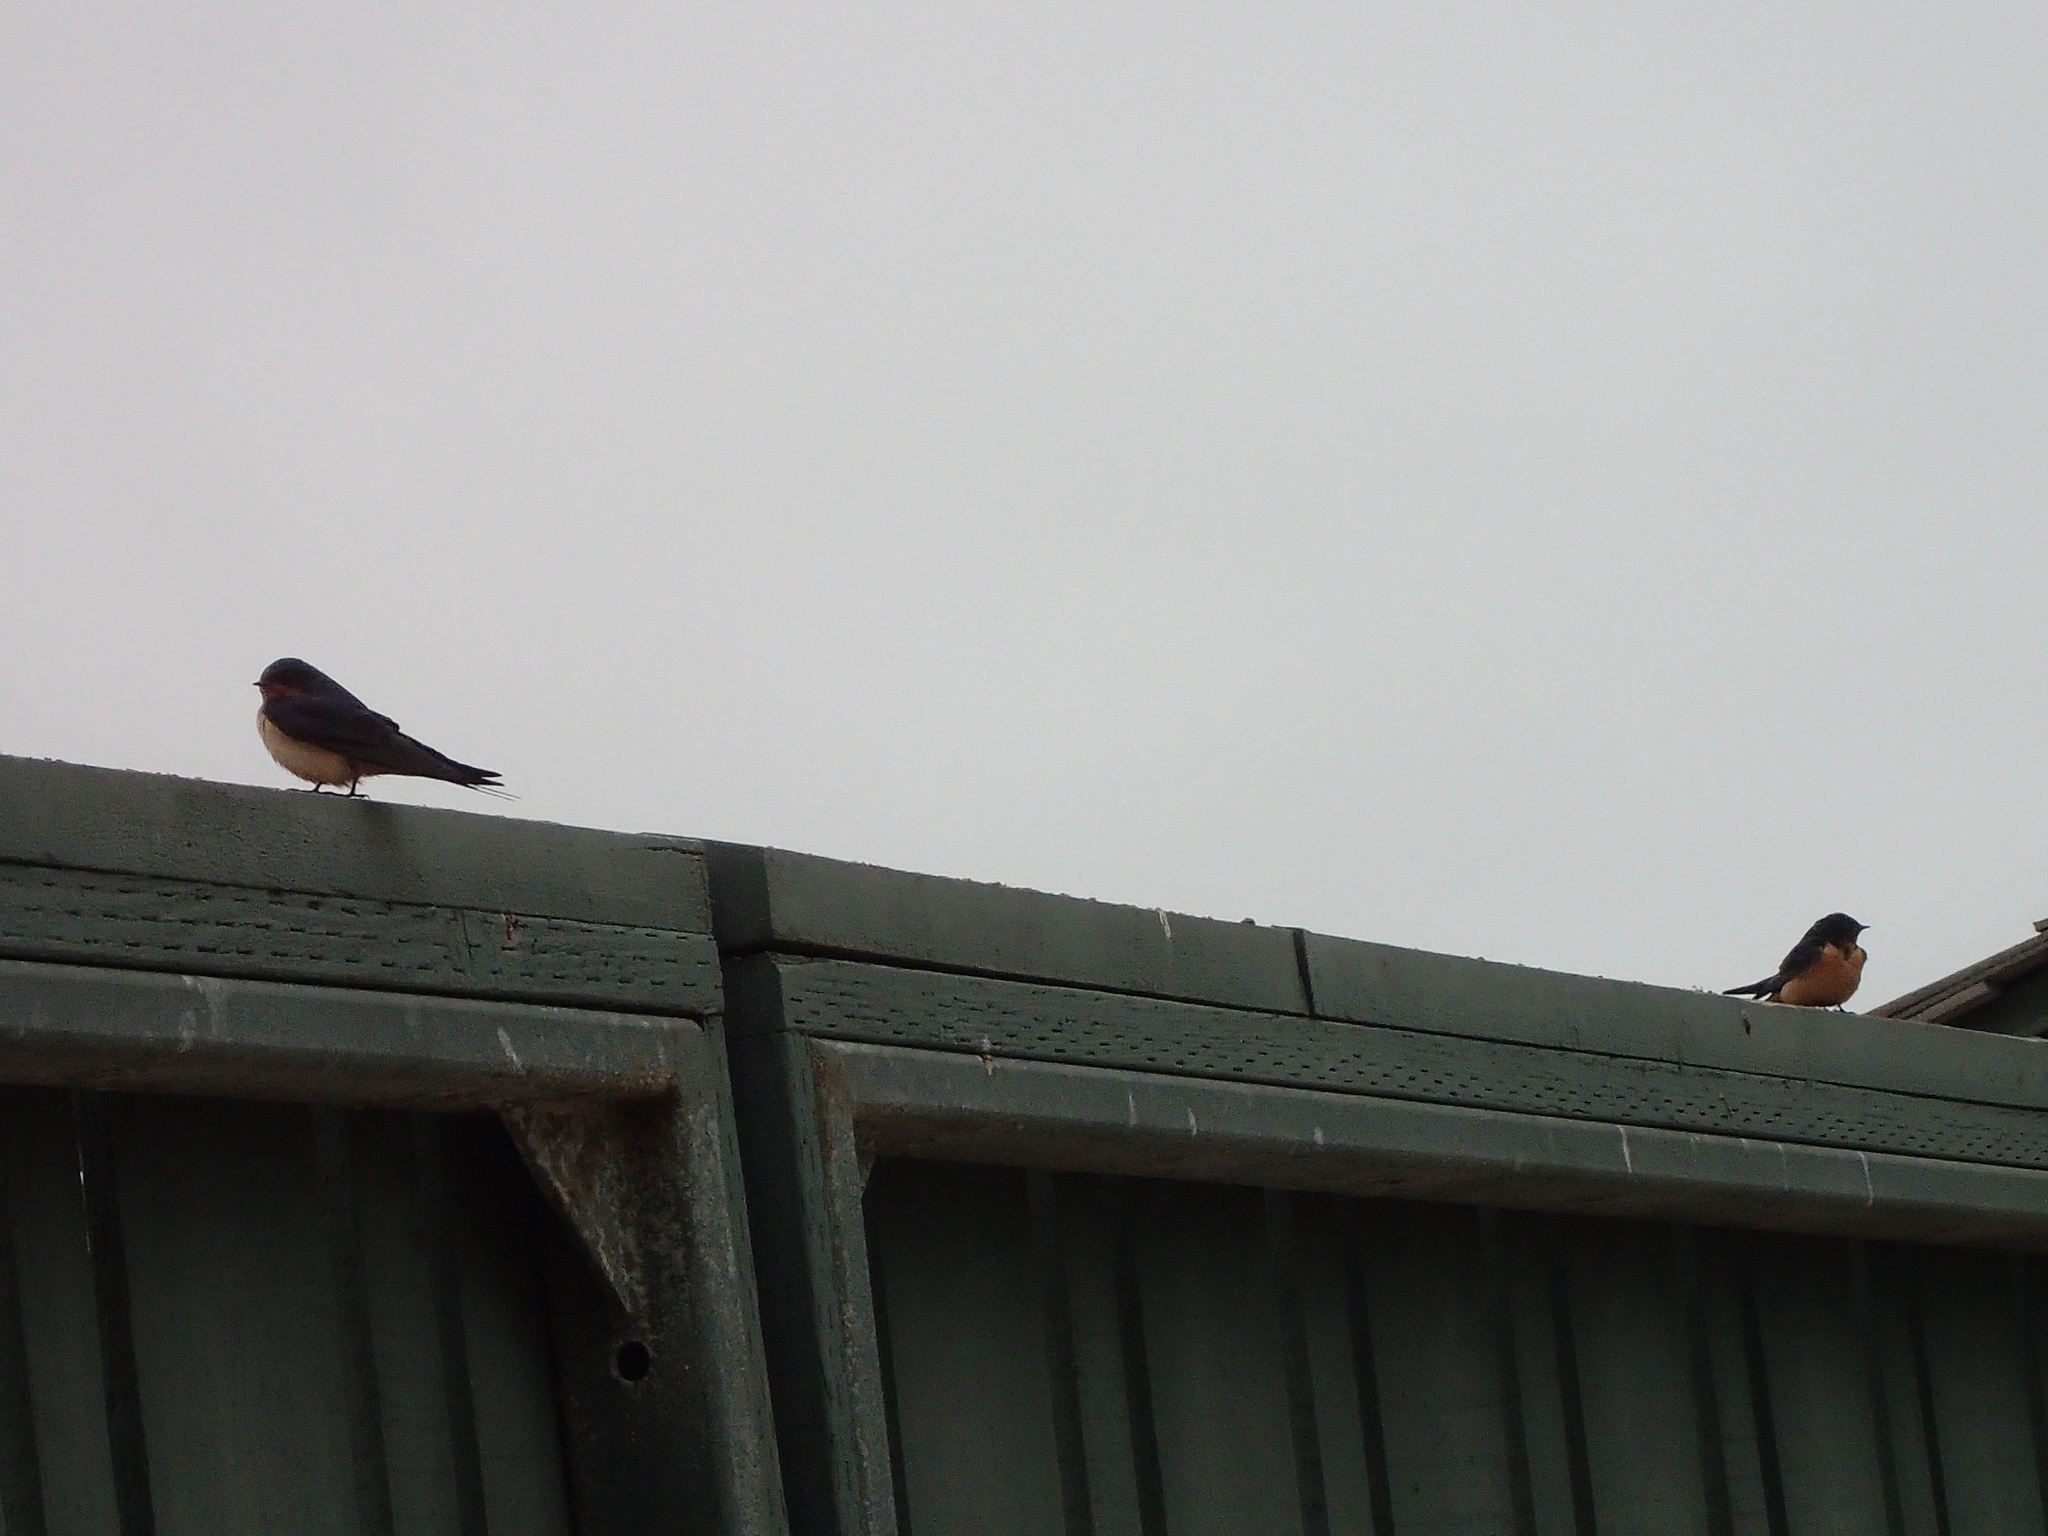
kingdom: Animalia
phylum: Chordata
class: Aves
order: Passeriformes
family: Hirundinidae
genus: Hirundo
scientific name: Hirundo rustica
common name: Barn swallow
